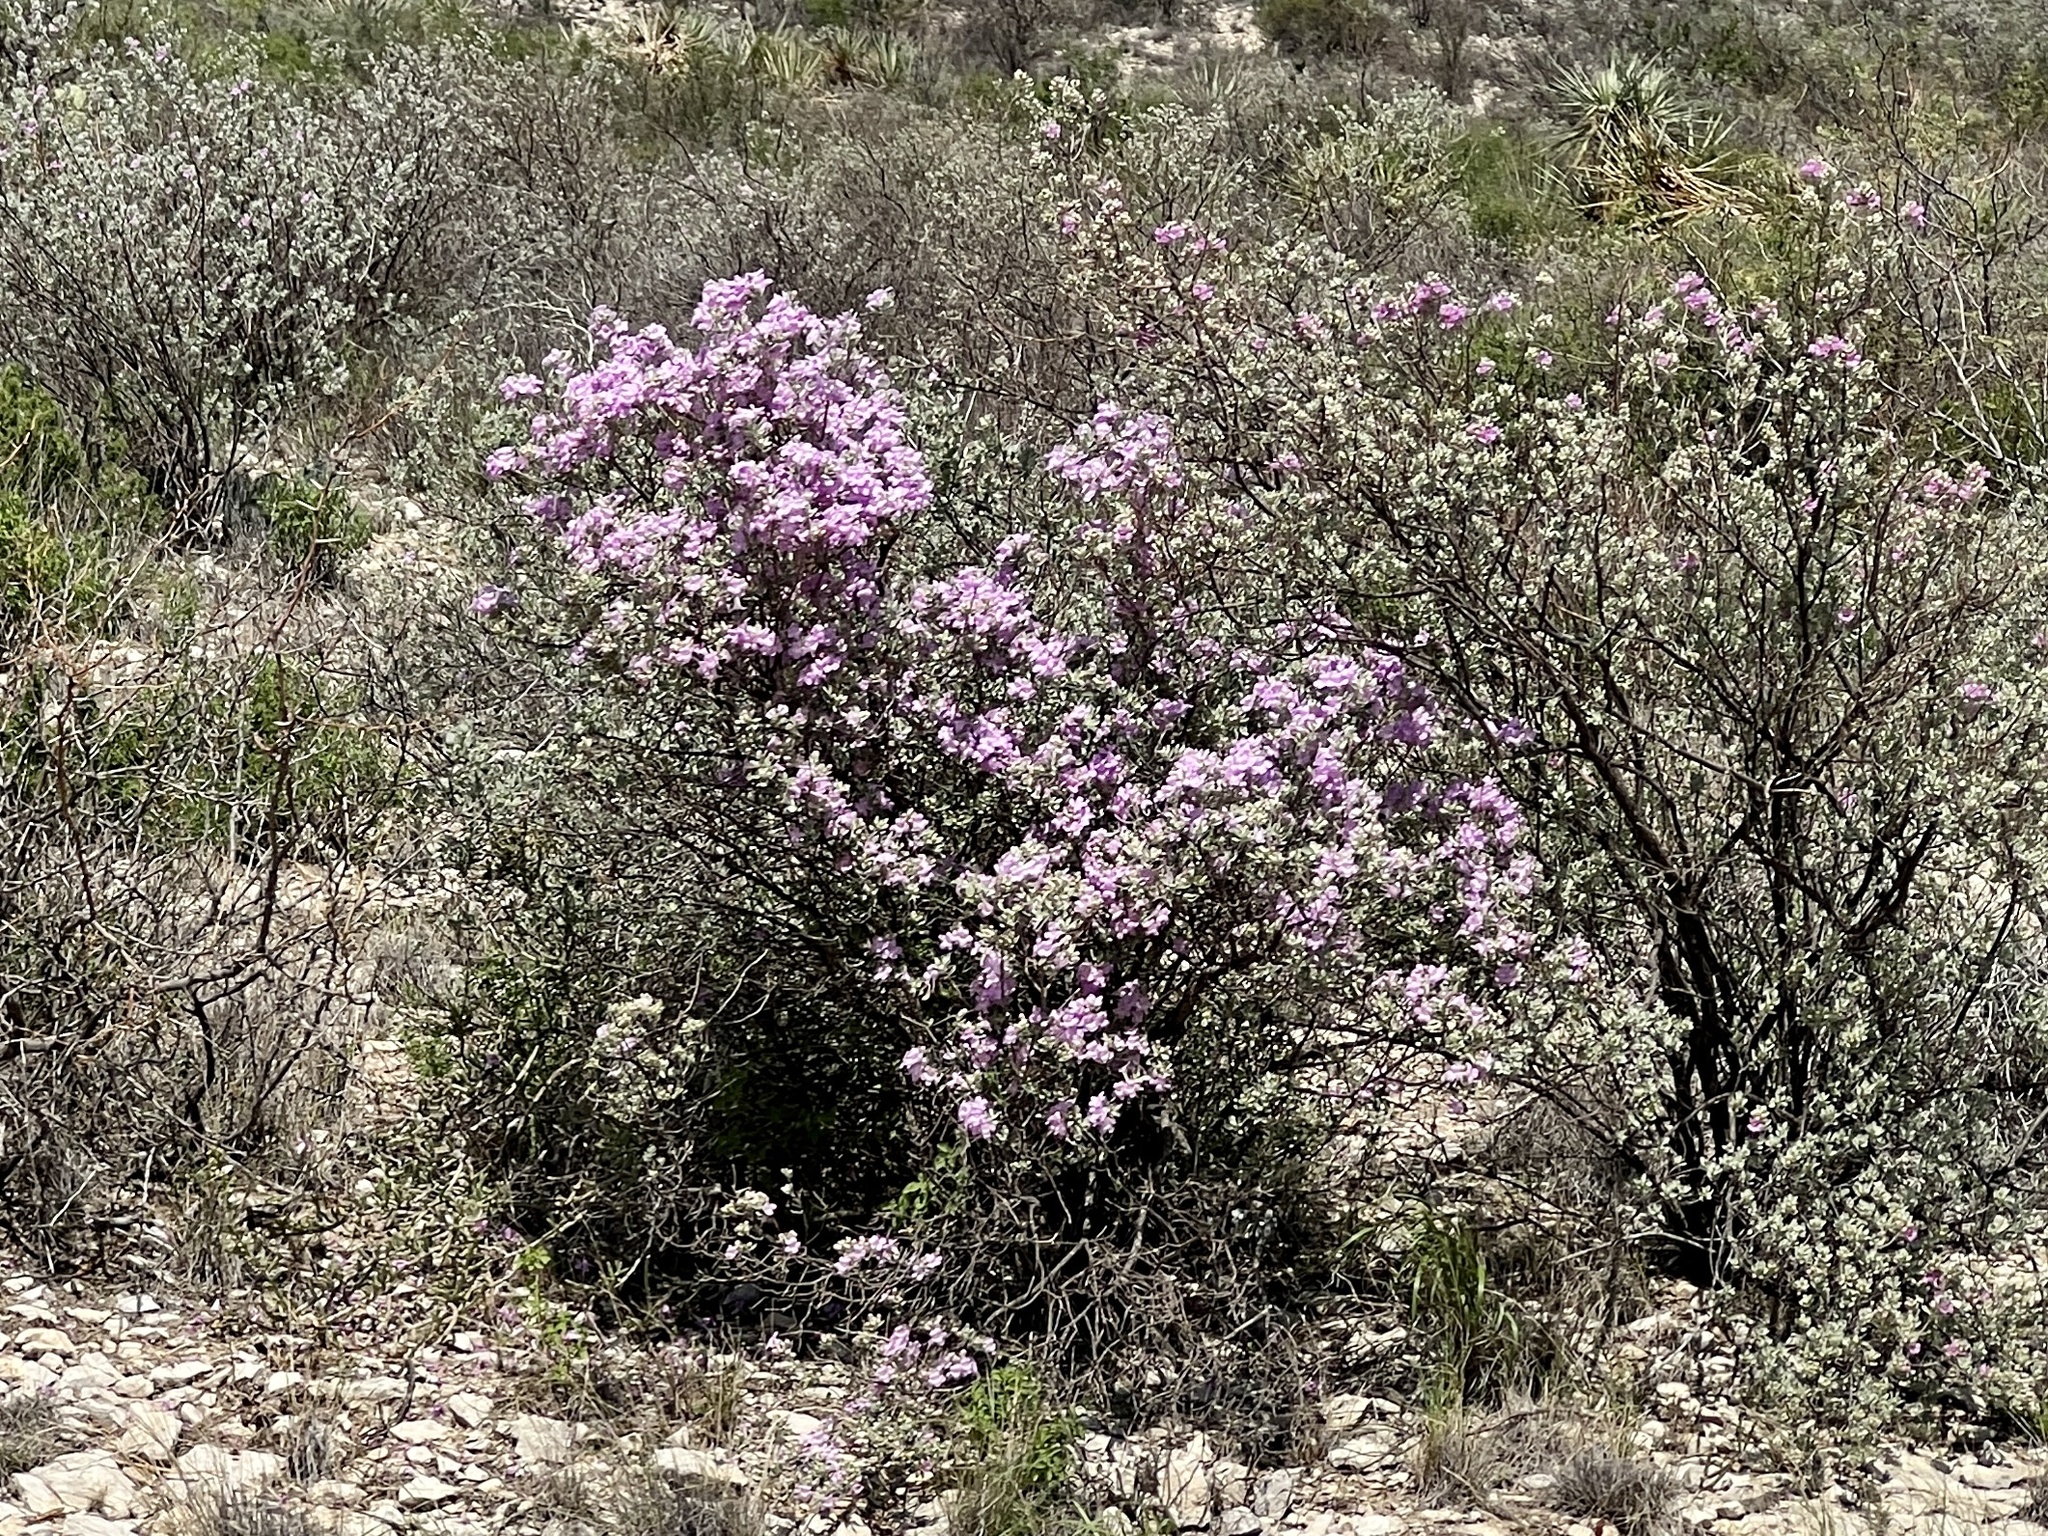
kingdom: Plantae
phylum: Tracheophyta
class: Magnoliopsida
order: Lamiales
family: Scrophulariaceae
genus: Leucophyllum
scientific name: Leucophyllum frutescens
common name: Texas silverleaf
